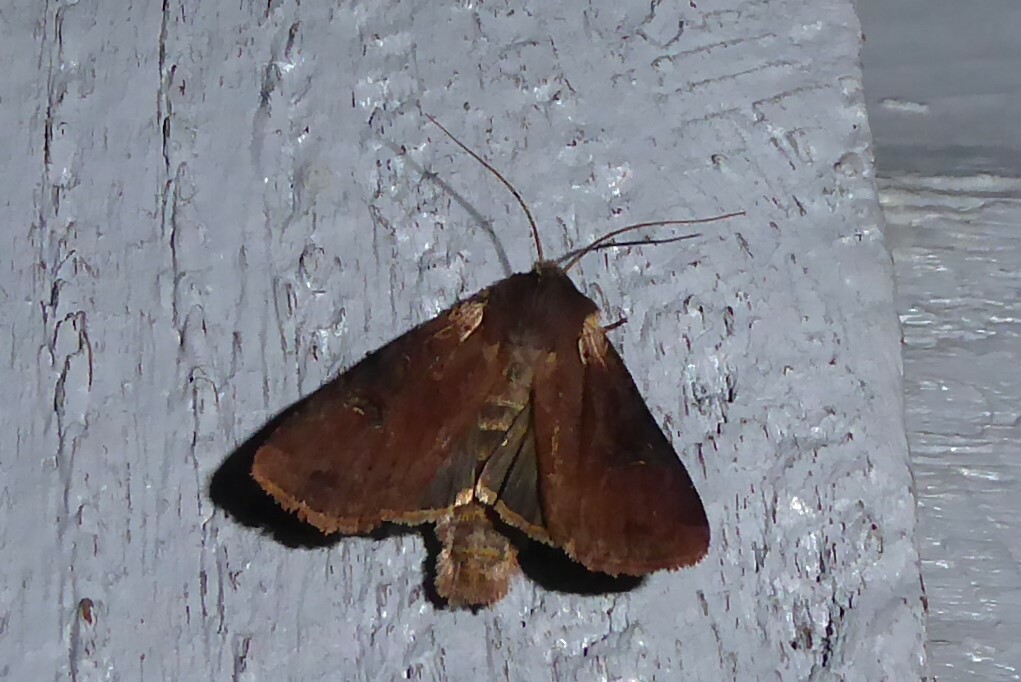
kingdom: Animalia
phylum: Arthropoda
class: Insecta
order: Lepidoptera
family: Noctuidae
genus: Ichneutica
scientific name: Ichneutica omoplaca
